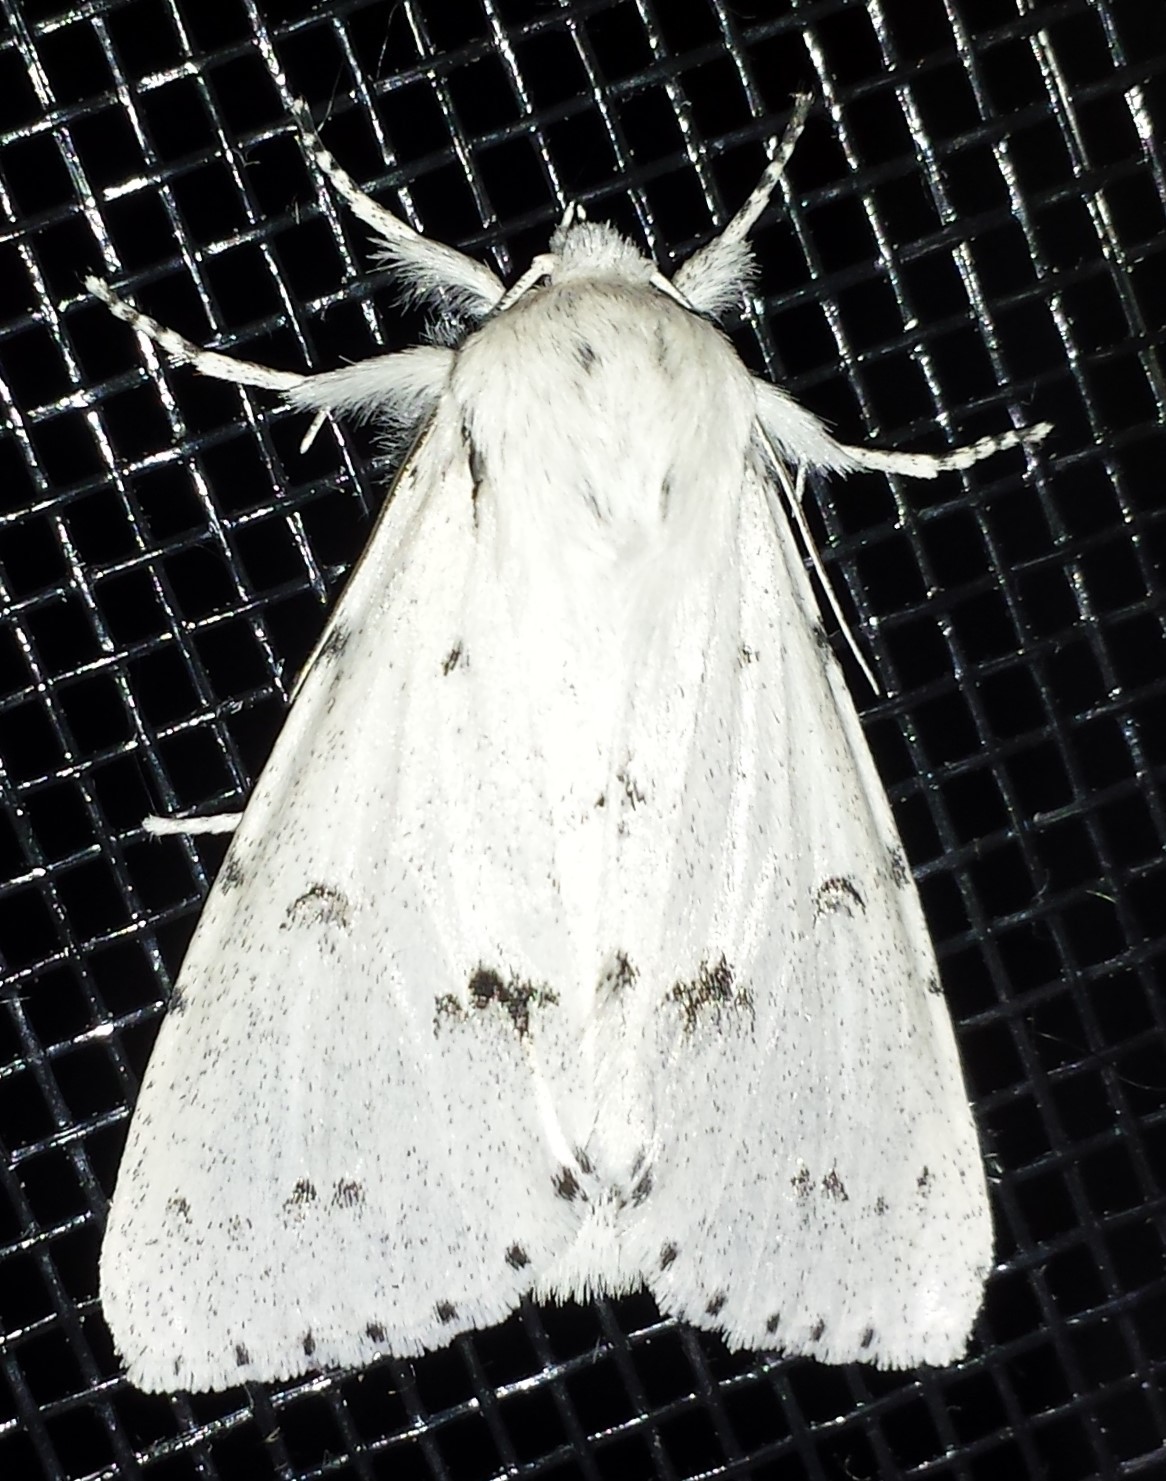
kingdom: Animalia
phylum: Arthropoda
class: Insecta
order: Lepidoptera
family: Noctuidae
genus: Acronicta
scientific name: Acronicta vulpina
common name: Miller dagger
